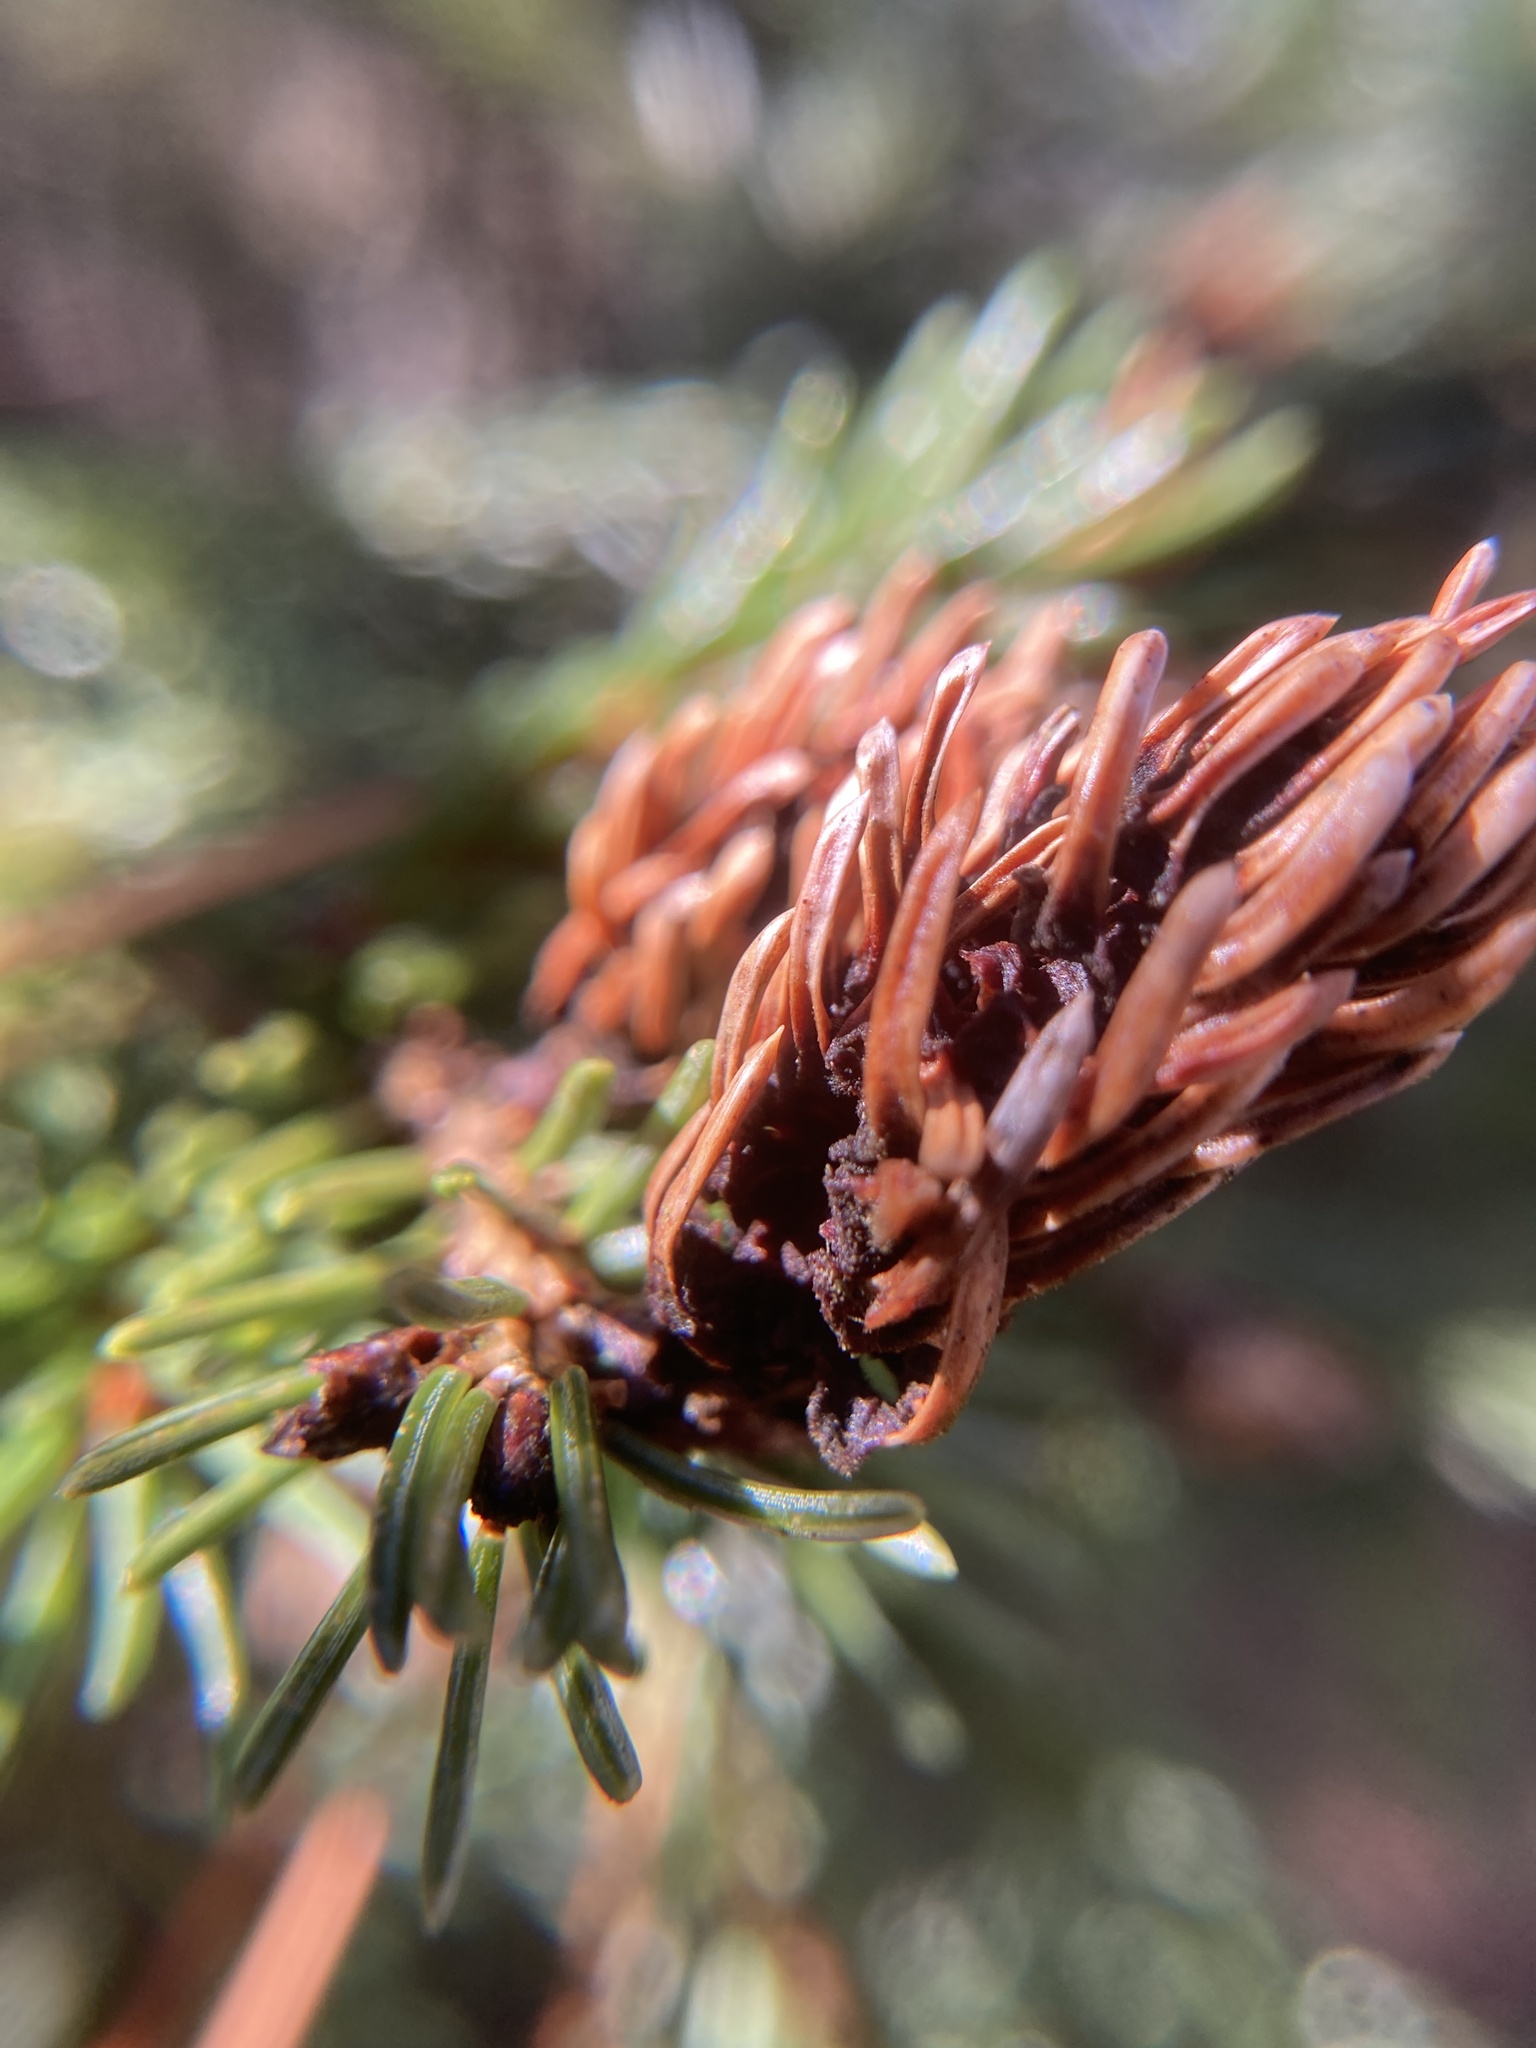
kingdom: Animalia
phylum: Arthropoda
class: Insecta
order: Hemiptera
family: Adelgidae
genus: Adelges
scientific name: Adelges abietis
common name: Eastern spruce gall adelgid
